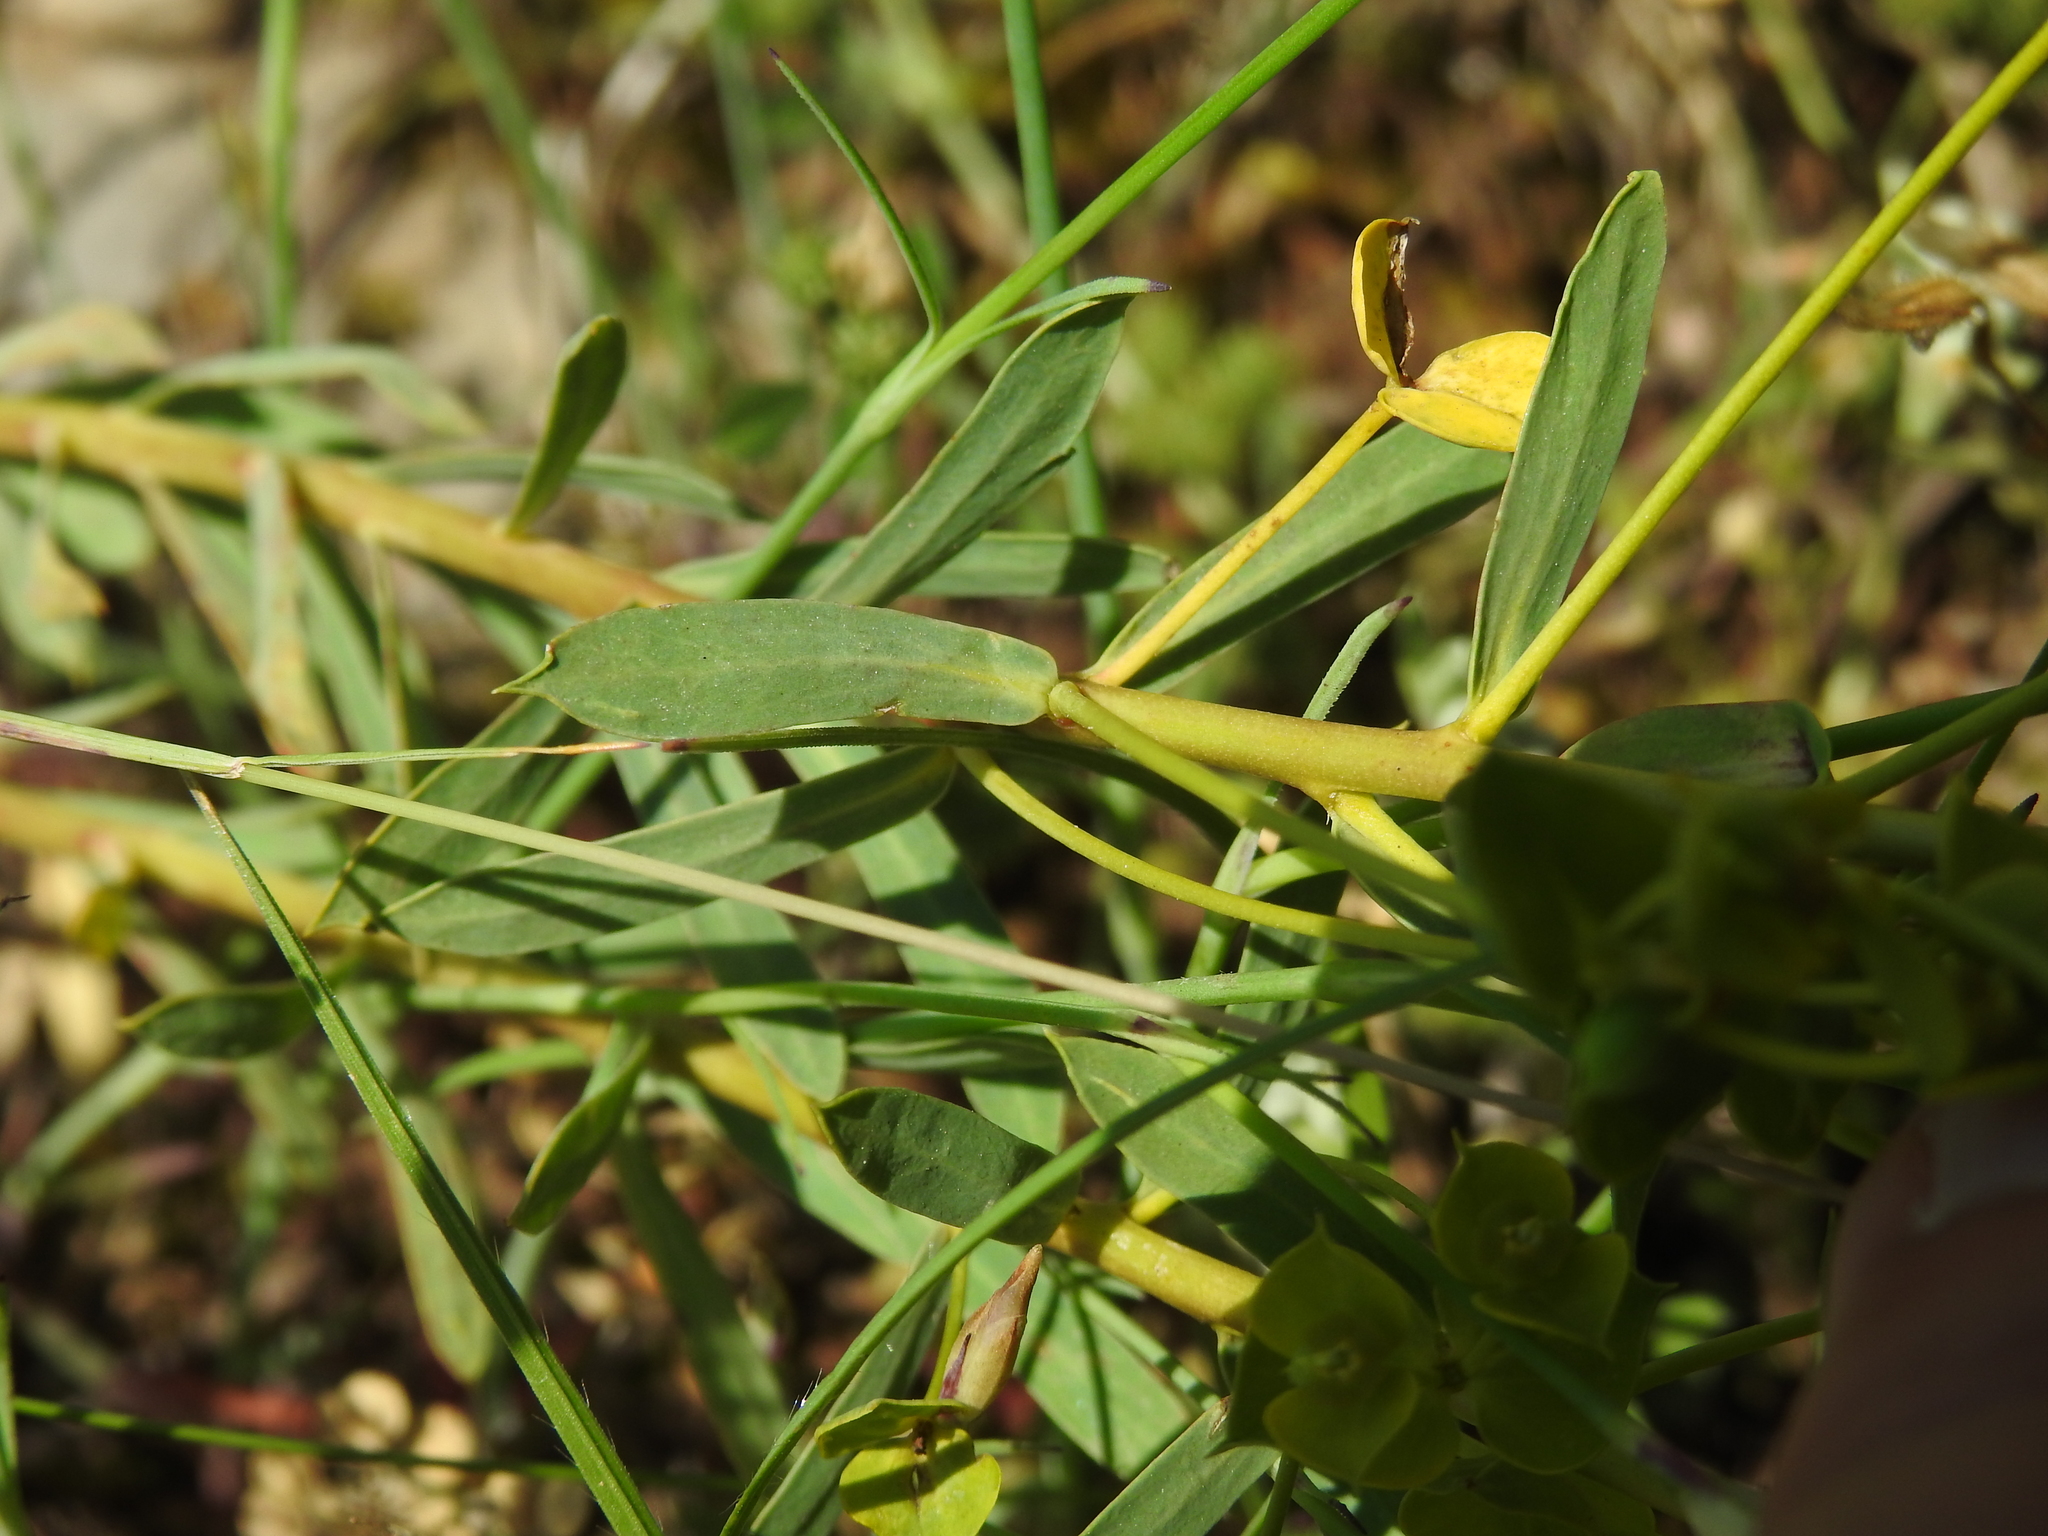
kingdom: Plantae
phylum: Tracheophyta
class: Magnoliopsida
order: Malpighiales
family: Euphorbiaceae
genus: Euphorbia
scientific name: Euphorbia seguieriana
